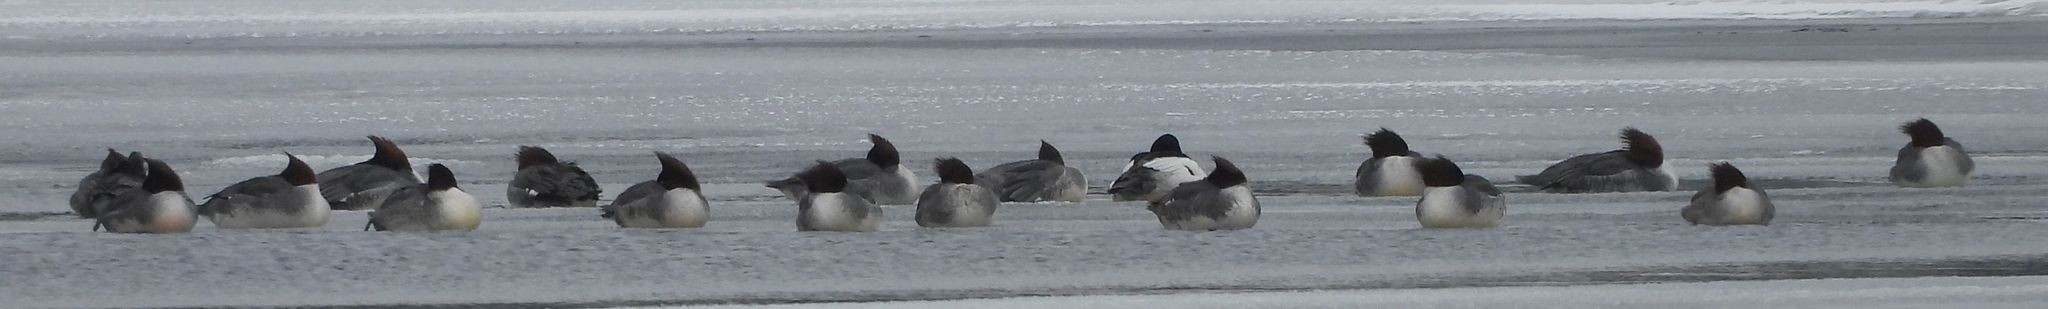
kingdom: Animalia
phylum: Chordata
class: Aves
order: Anseriformes
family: Anatidae
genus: Mergus
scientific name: Mergus merganser
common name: Common merganser
